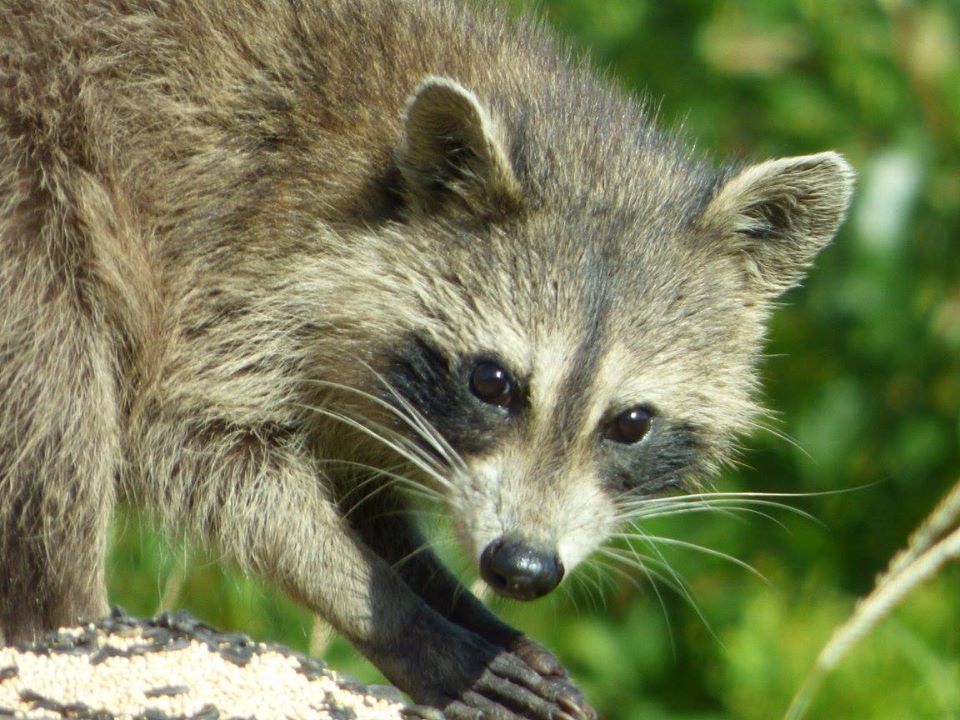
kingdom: Animalia
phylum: Chordata
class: Mammalia
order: Carnivora
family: Procyonidae
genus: Procyon
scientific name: Procyon lotor
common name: Raccoon
